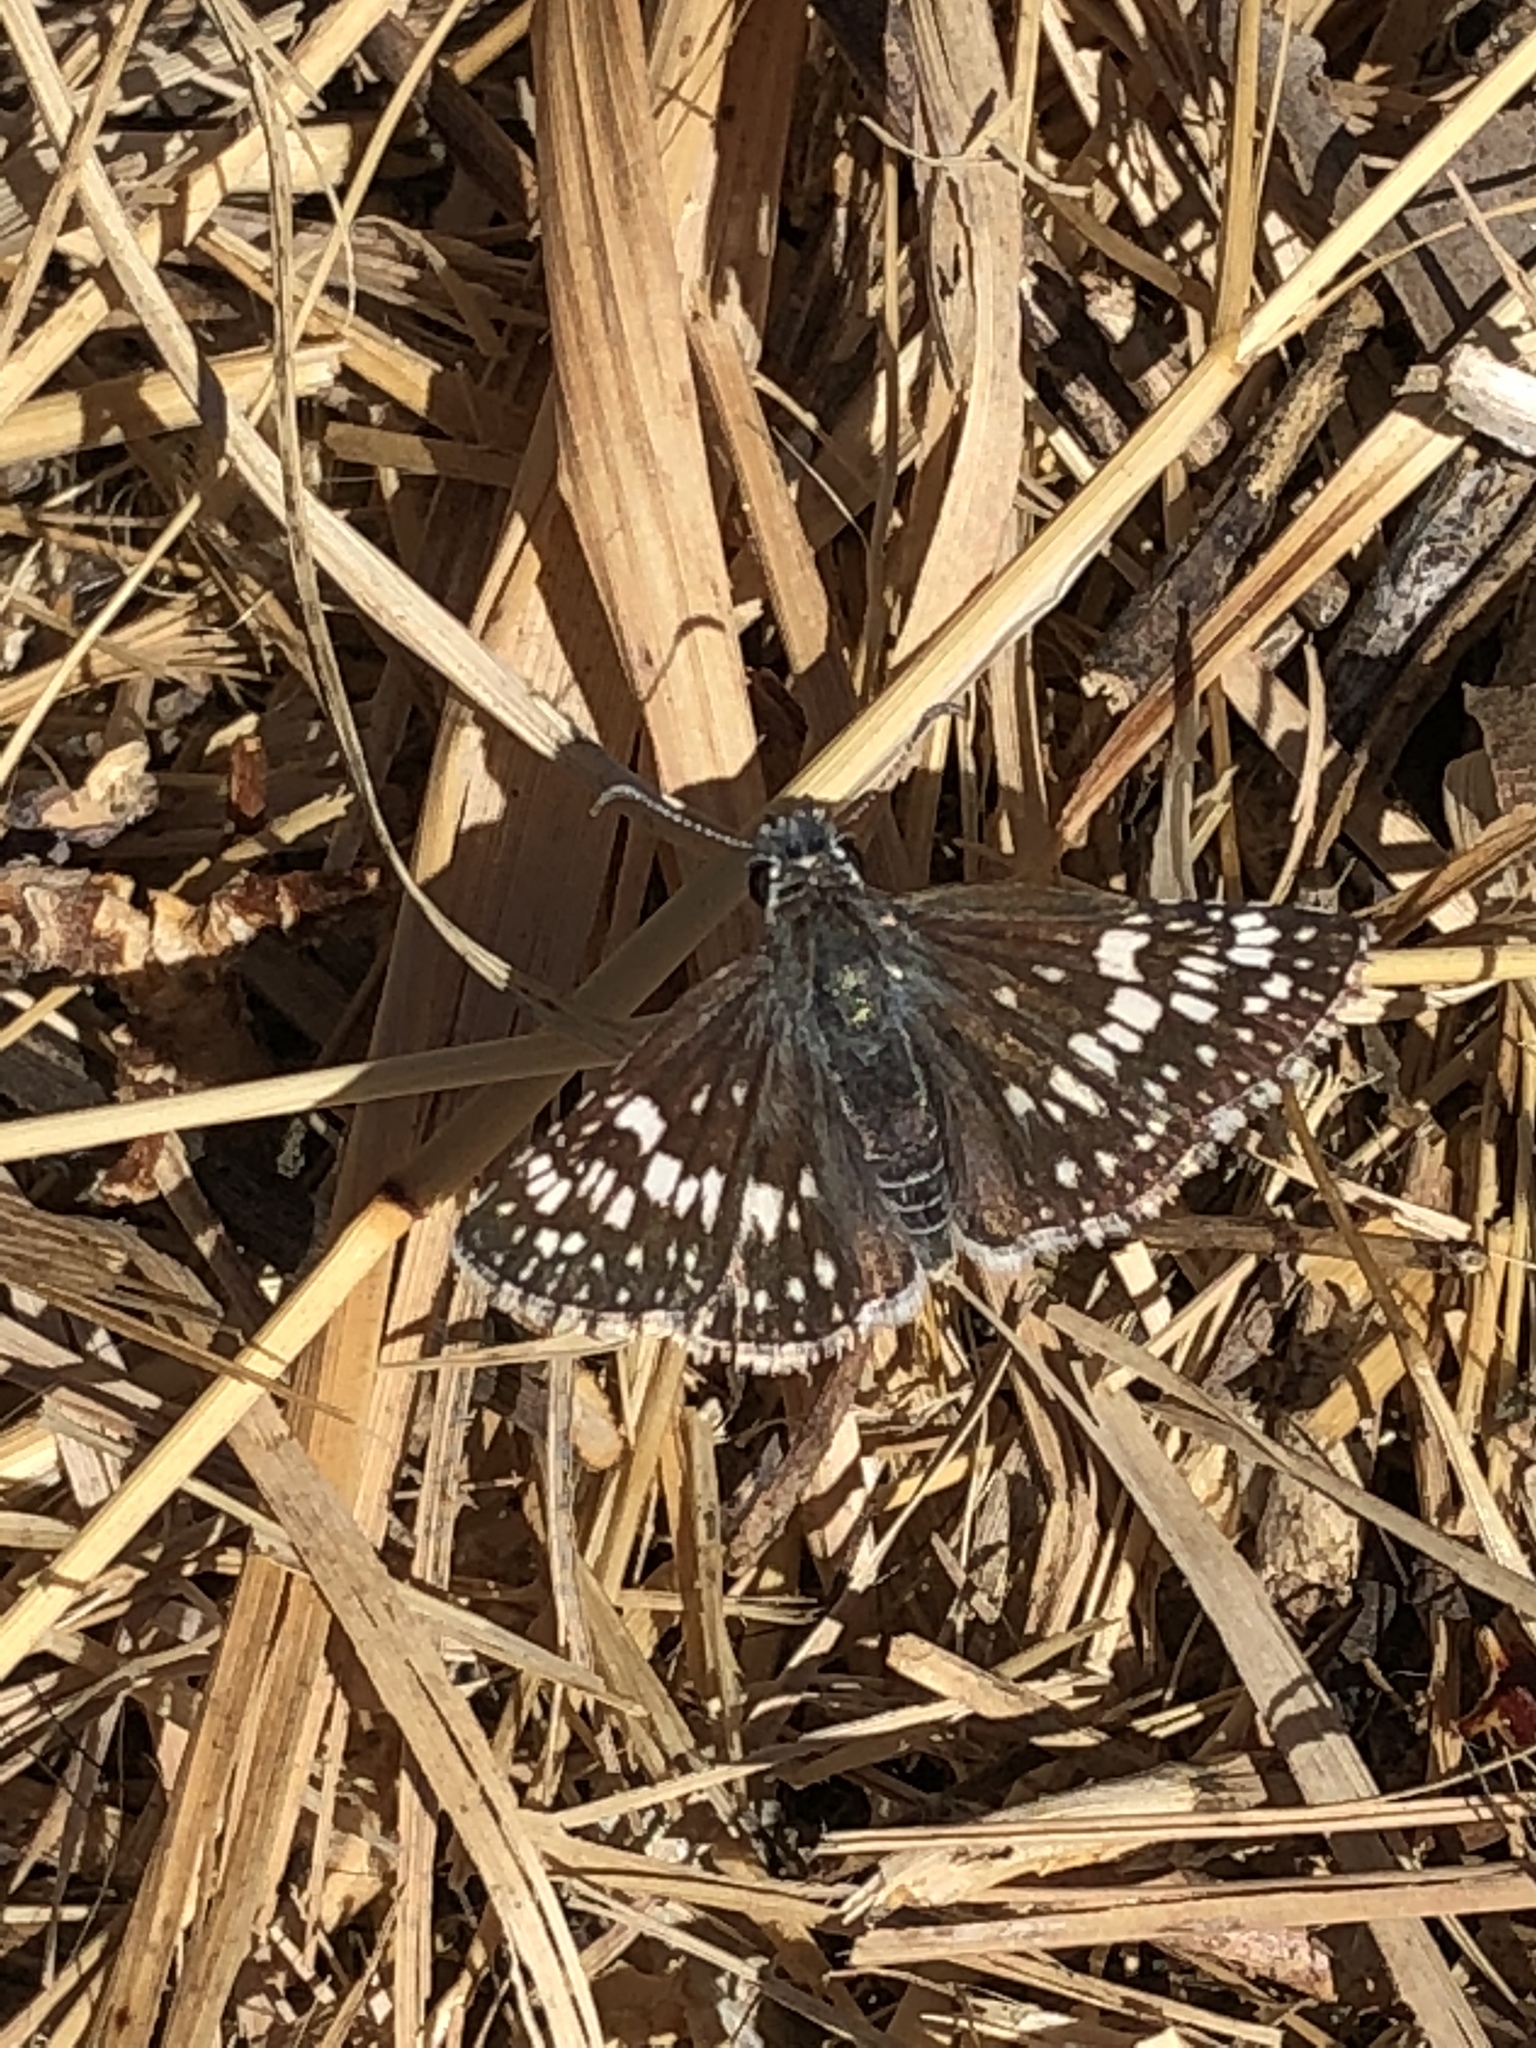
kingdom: Animalia
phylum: Arthropoda
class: Insecta
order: Lepidoptera
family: Hesperiidae
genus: Burnsius
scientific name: Burnsius communis
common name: Common checkered-skipper
